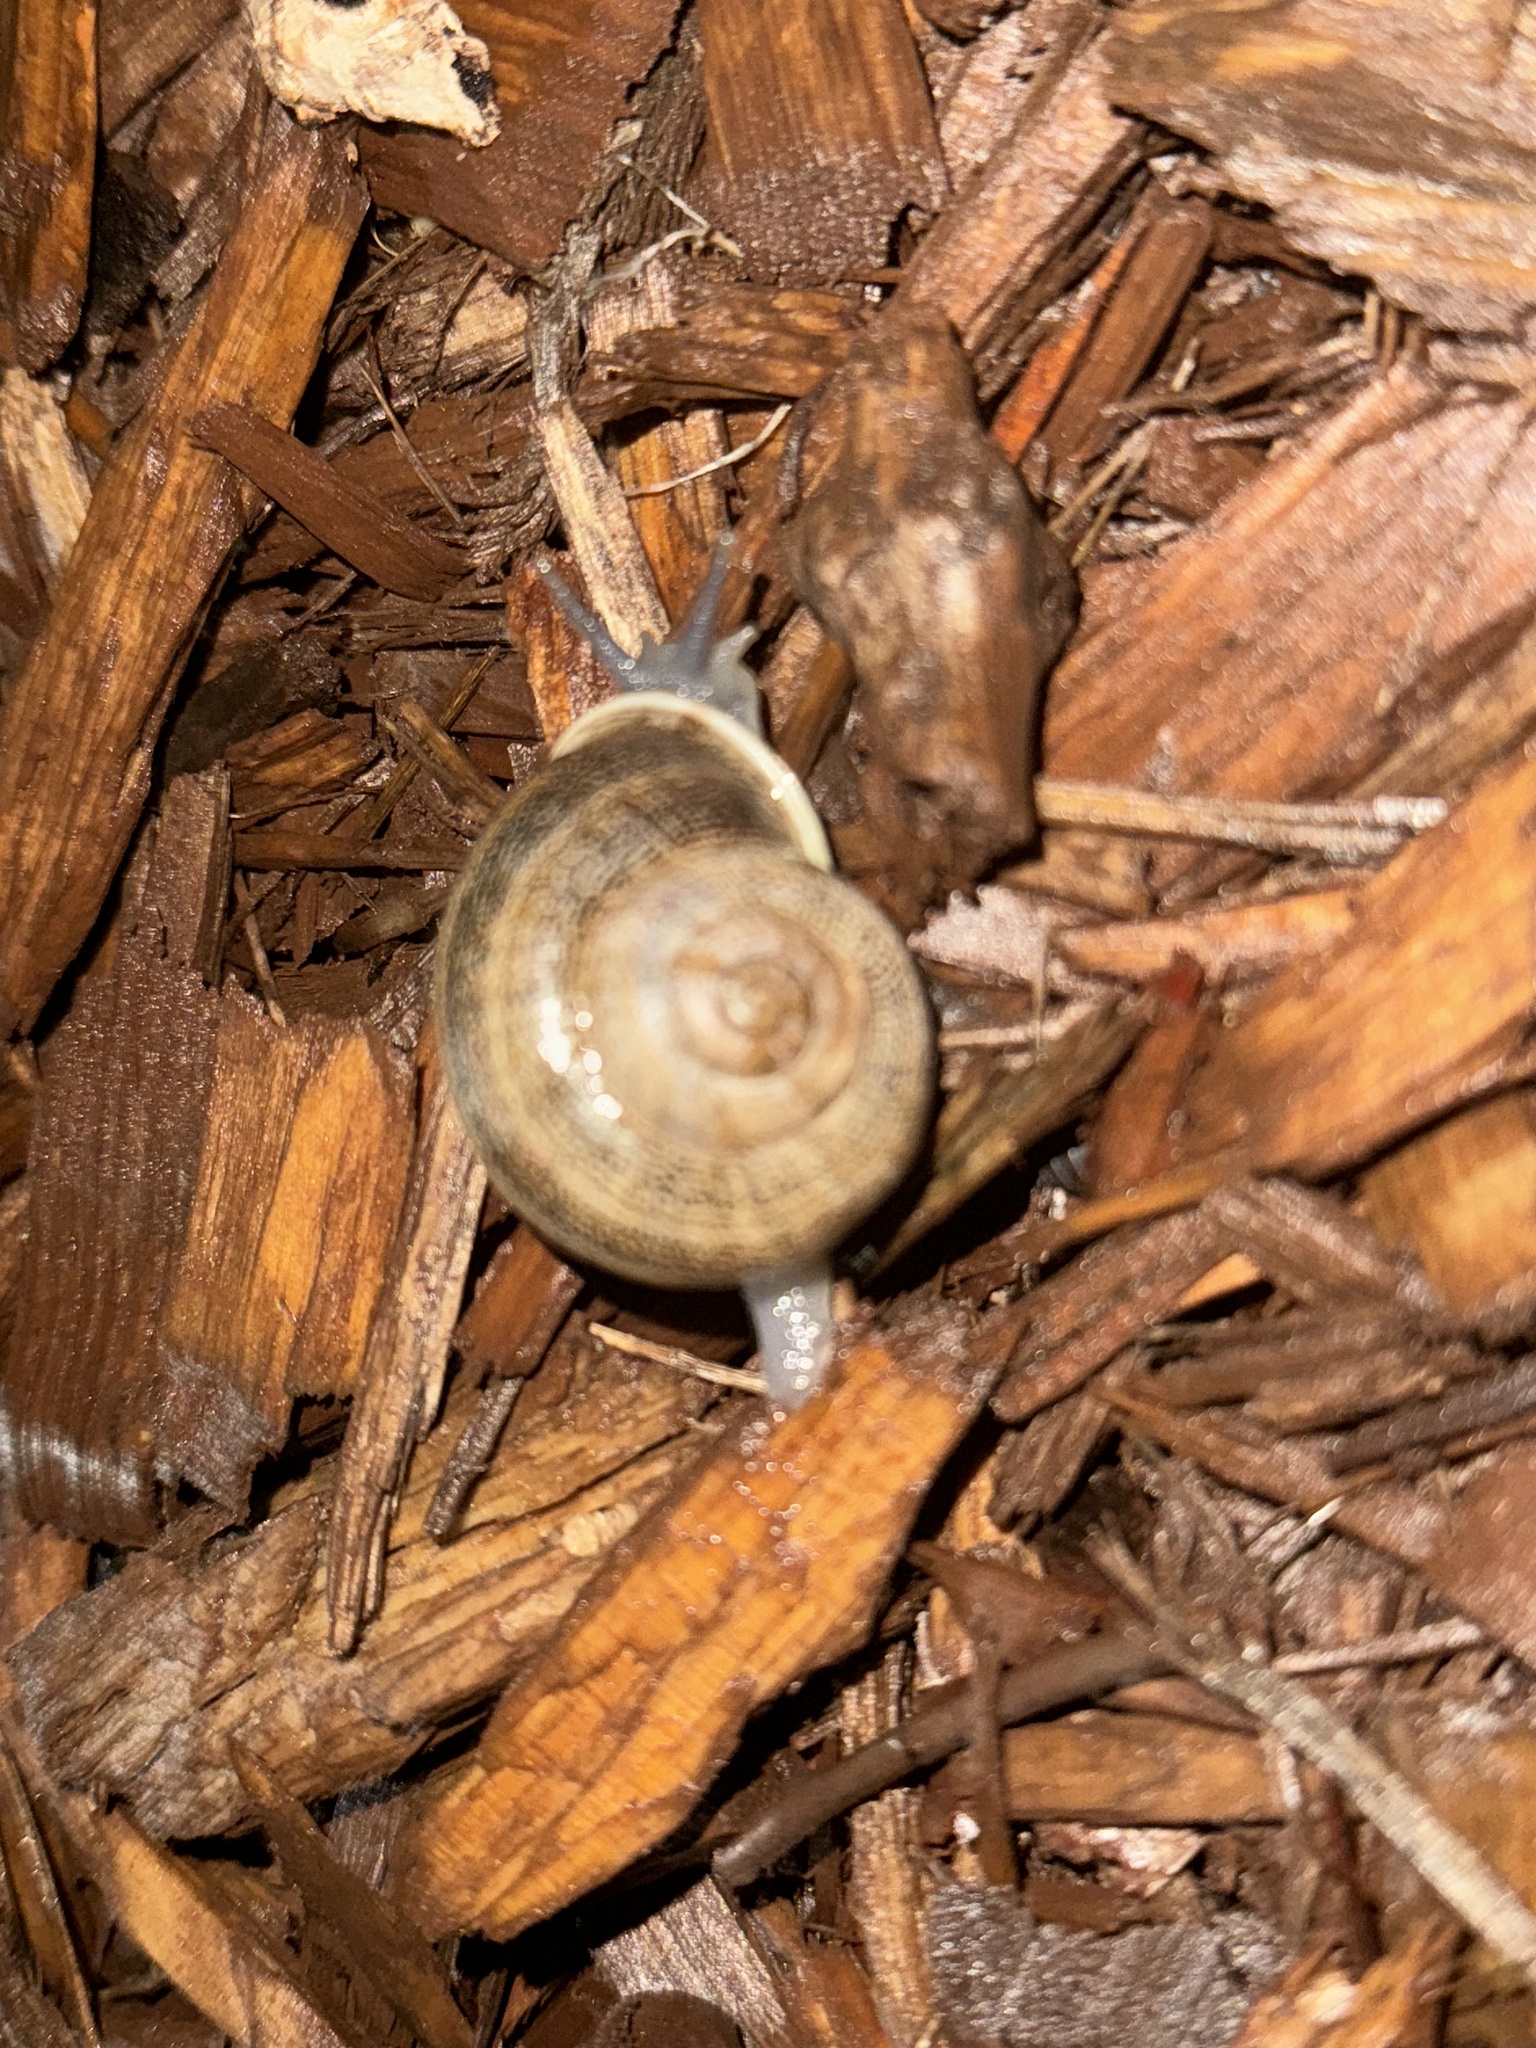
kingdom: Animalia
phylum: Mollusca
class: Gastropoda
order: Stylommatophora
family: Helicidae
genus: Otala
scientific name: Otala lactea
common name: Milk snail
